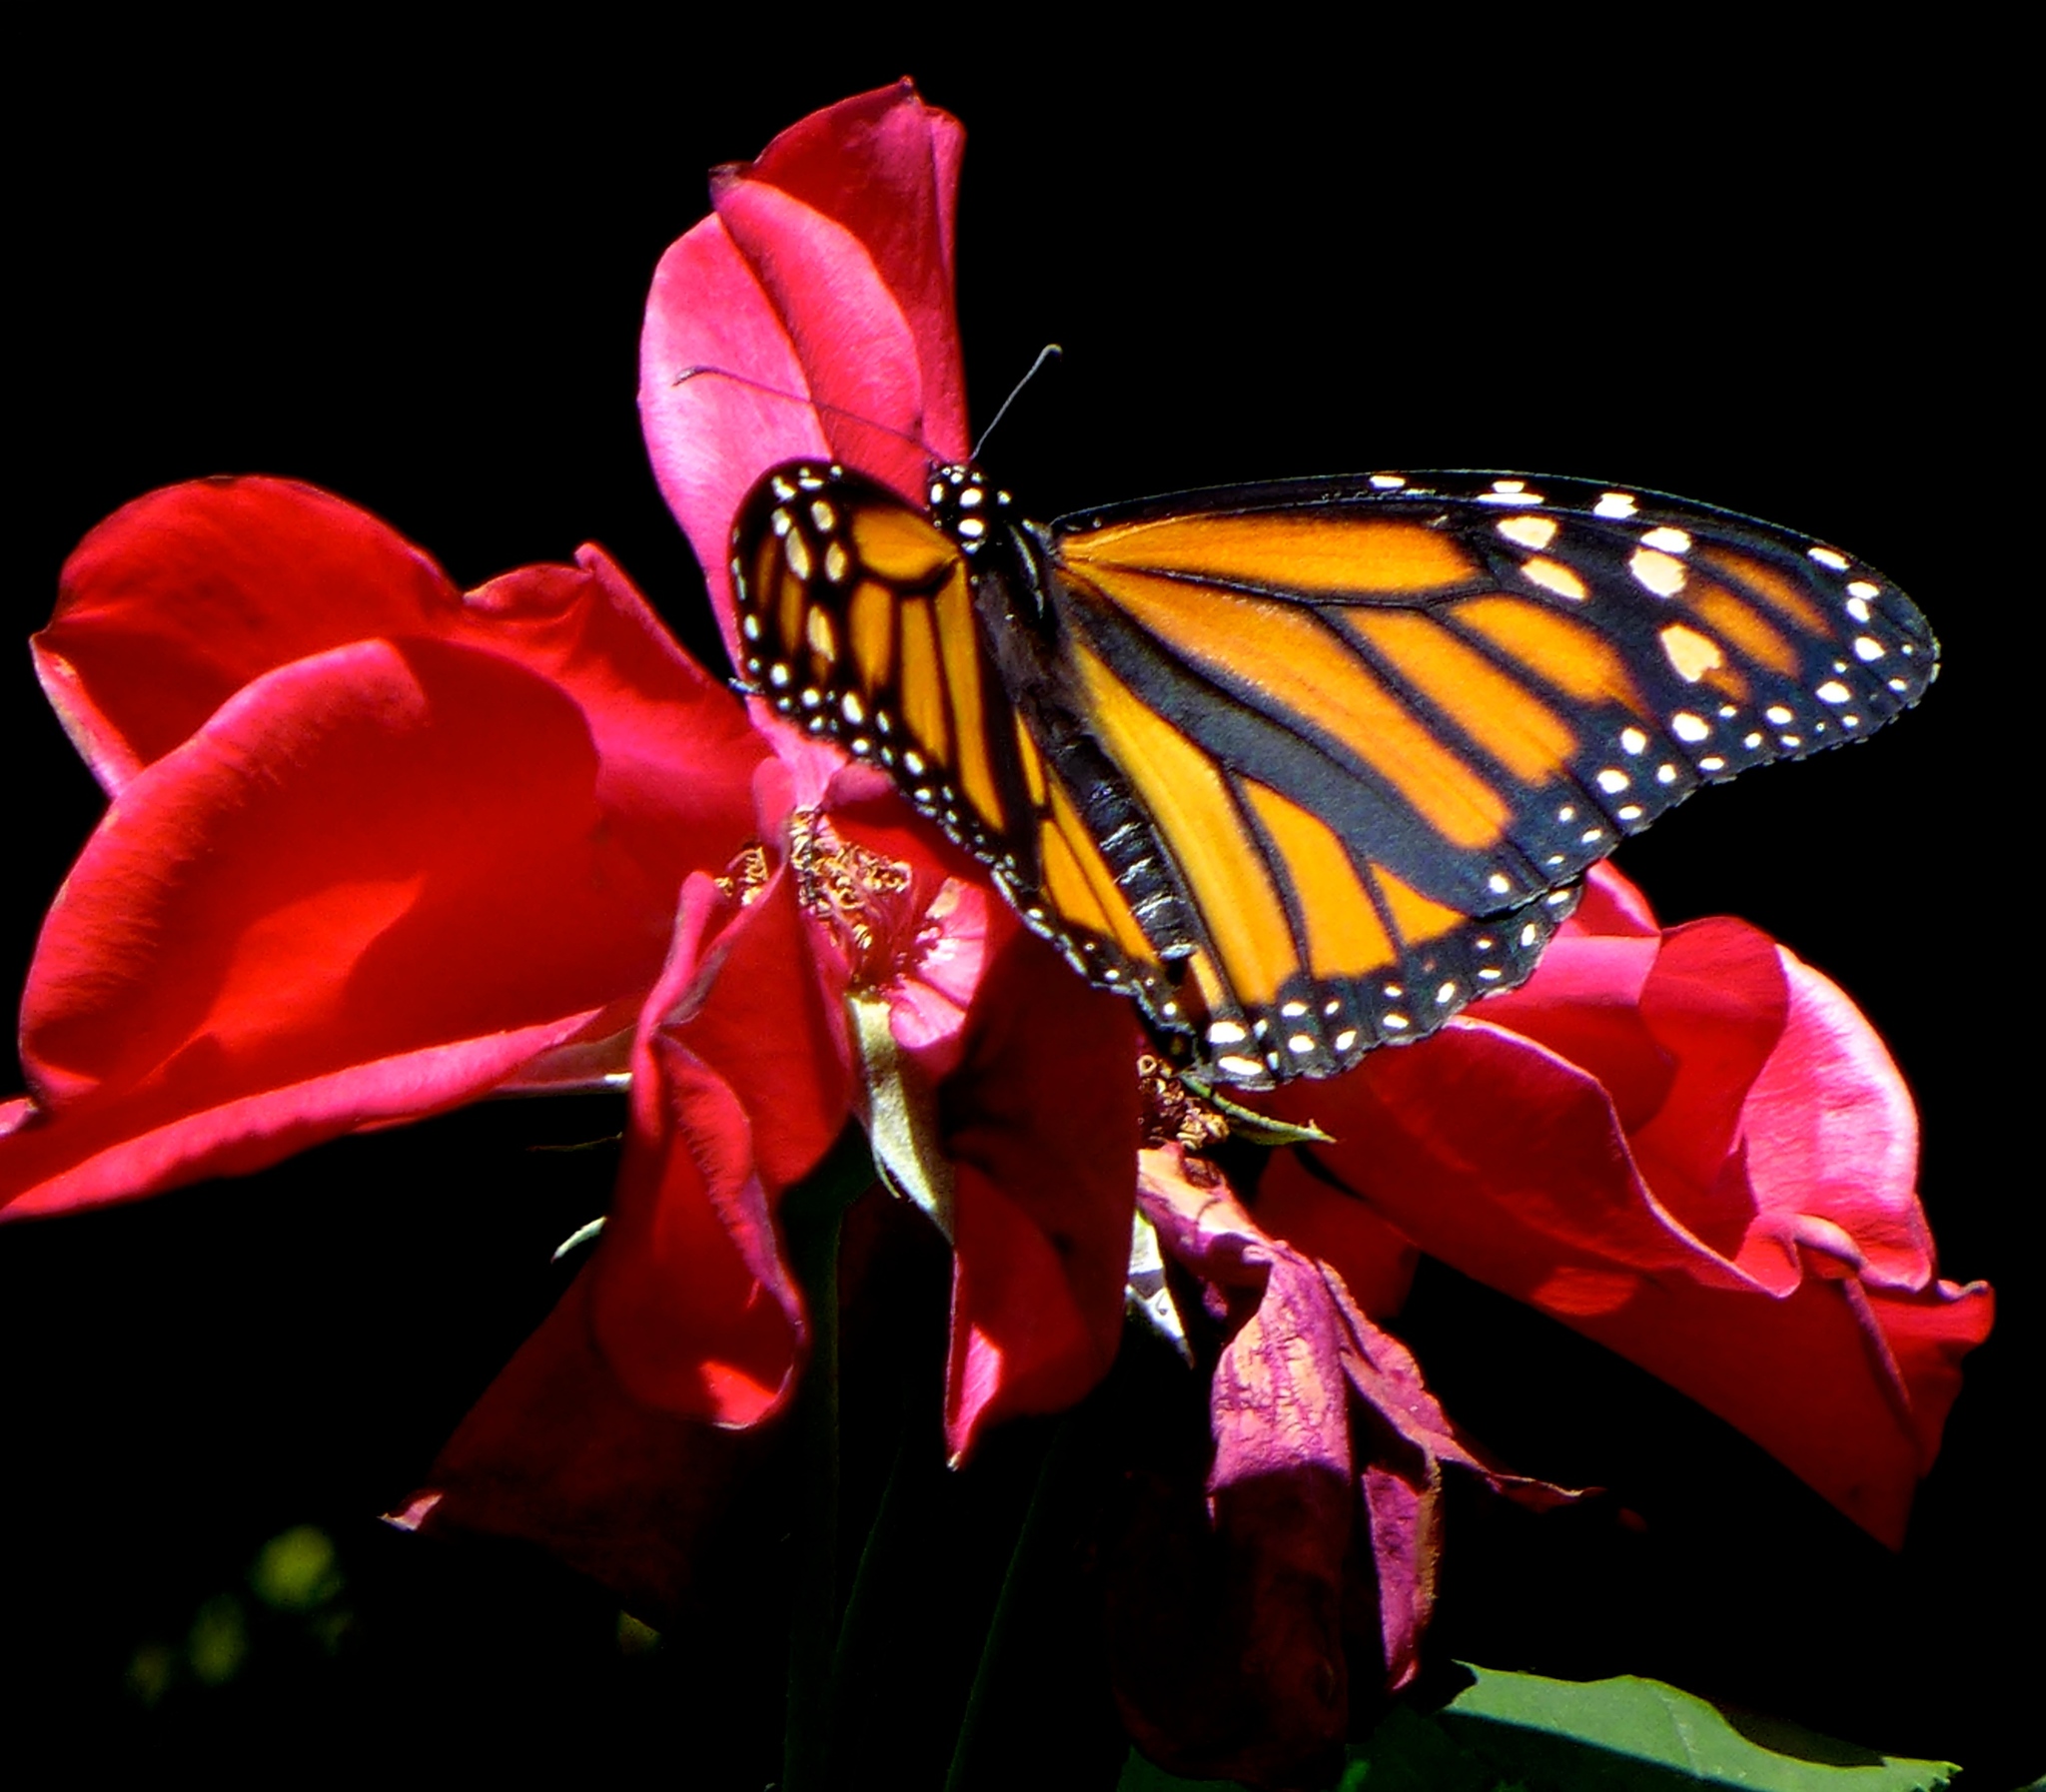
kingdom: Animalia
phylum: Arthropoda
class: Insecta
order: Lepidoptera
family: Nymphalidae
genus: Danaus
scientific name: Danaus plexippus
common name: Monarch
